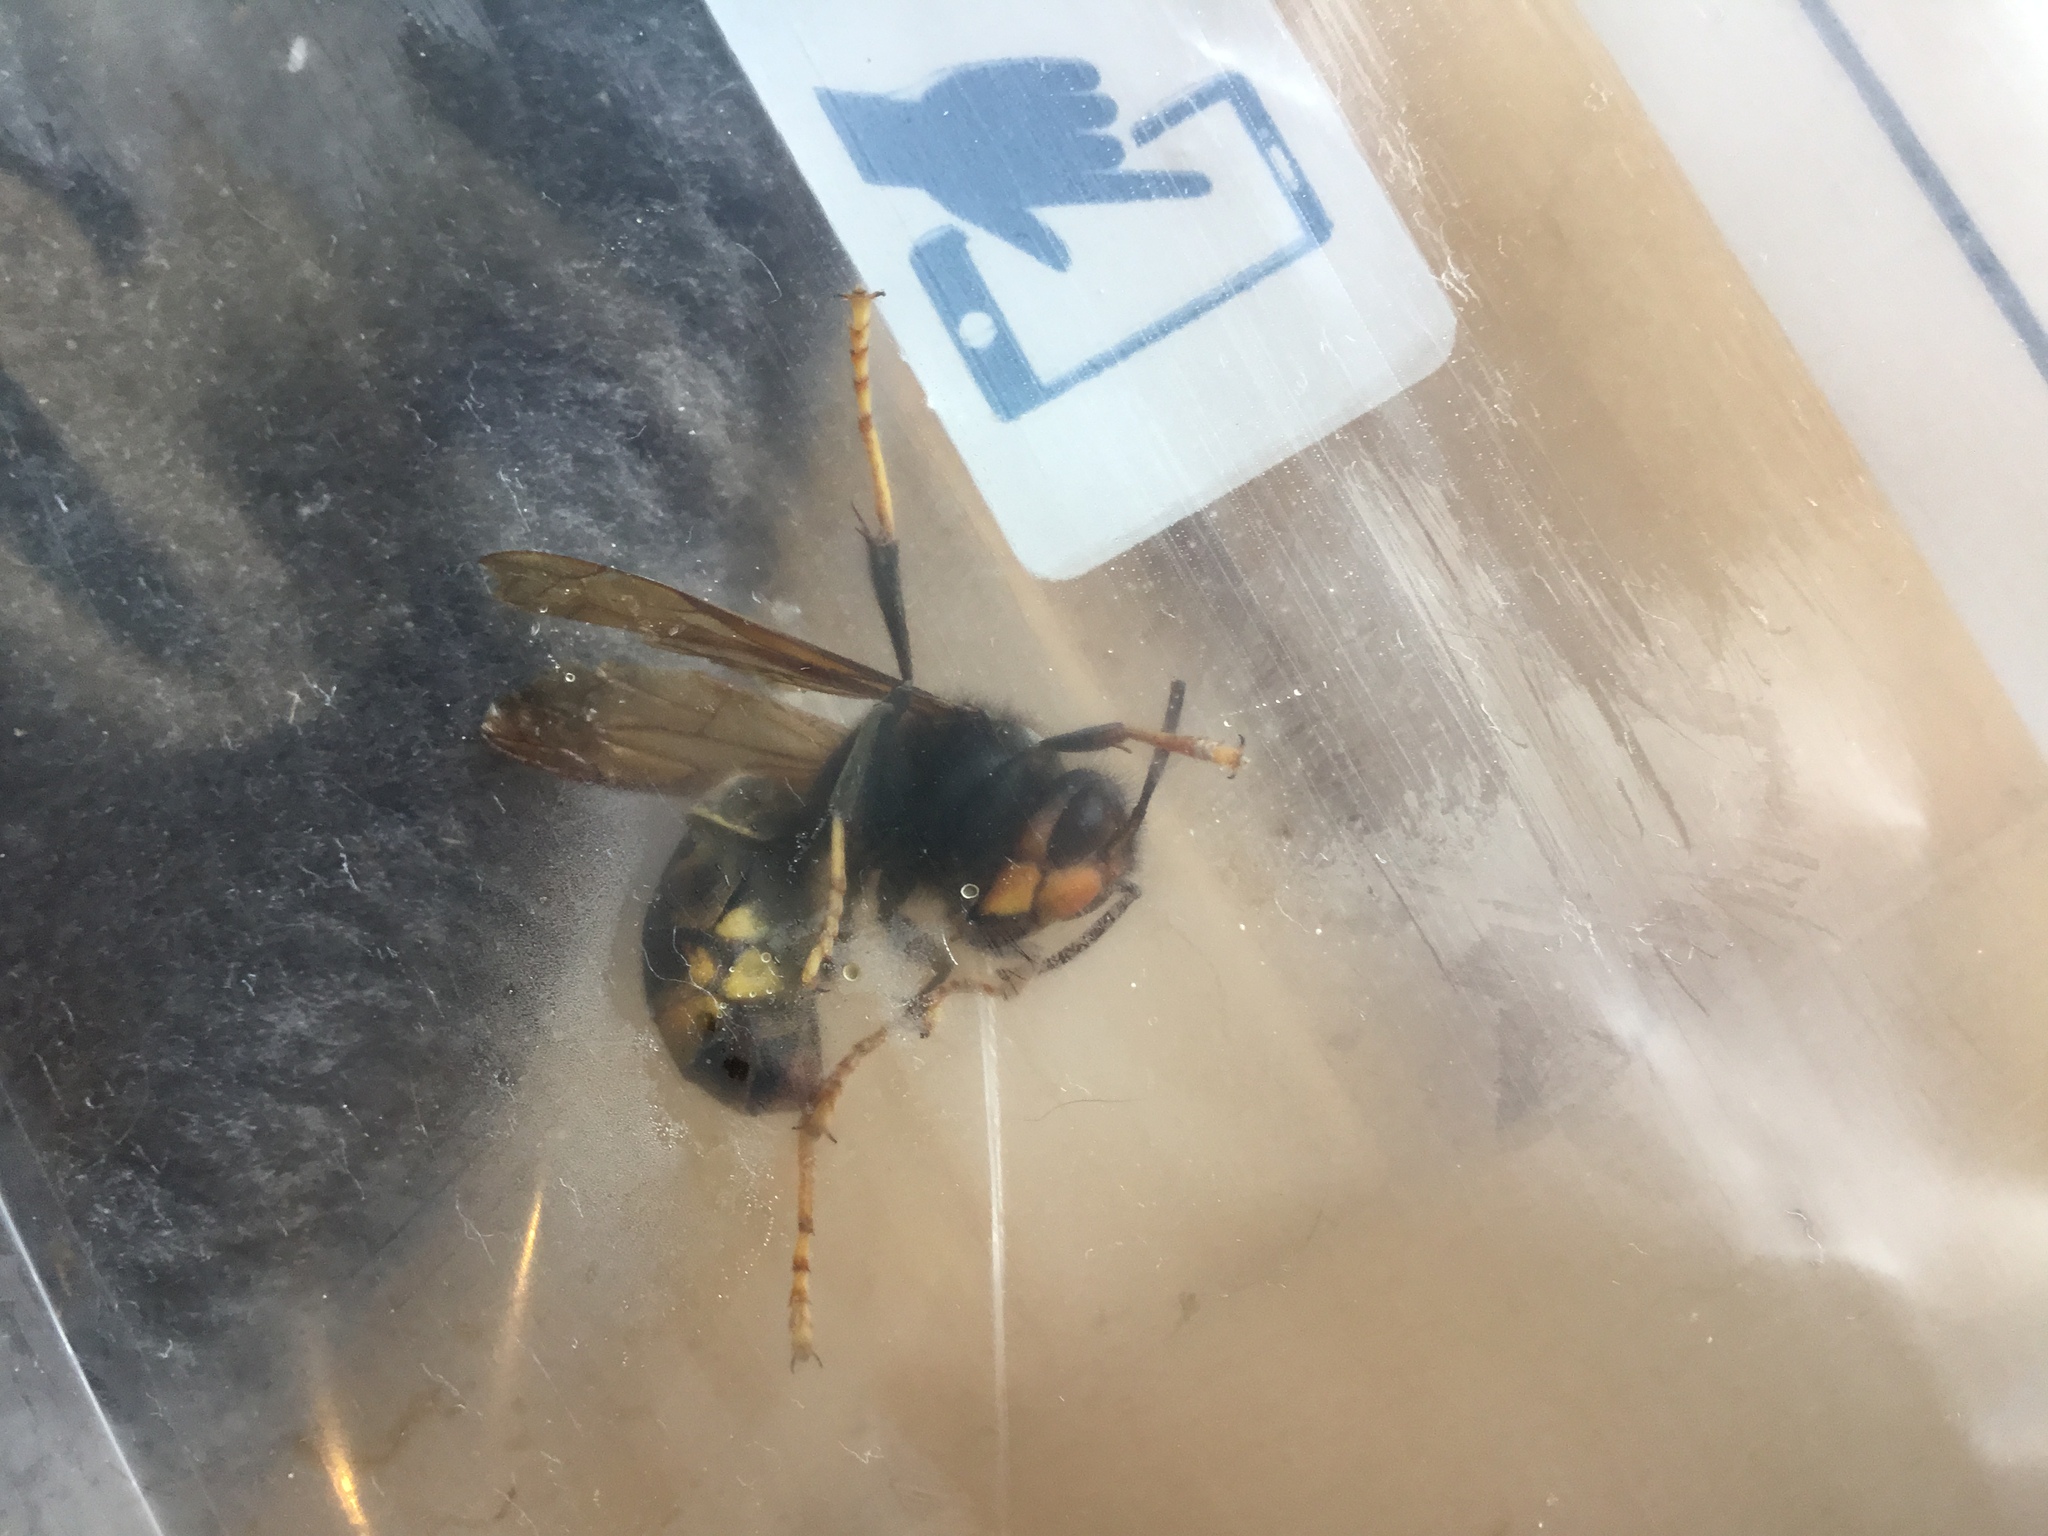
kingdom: Animalia
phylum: Arthropoda
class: Insecta
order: Hymenoptera
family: Vespidae
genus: Vespa
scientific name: Vespa velutina
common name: Asian hornet
